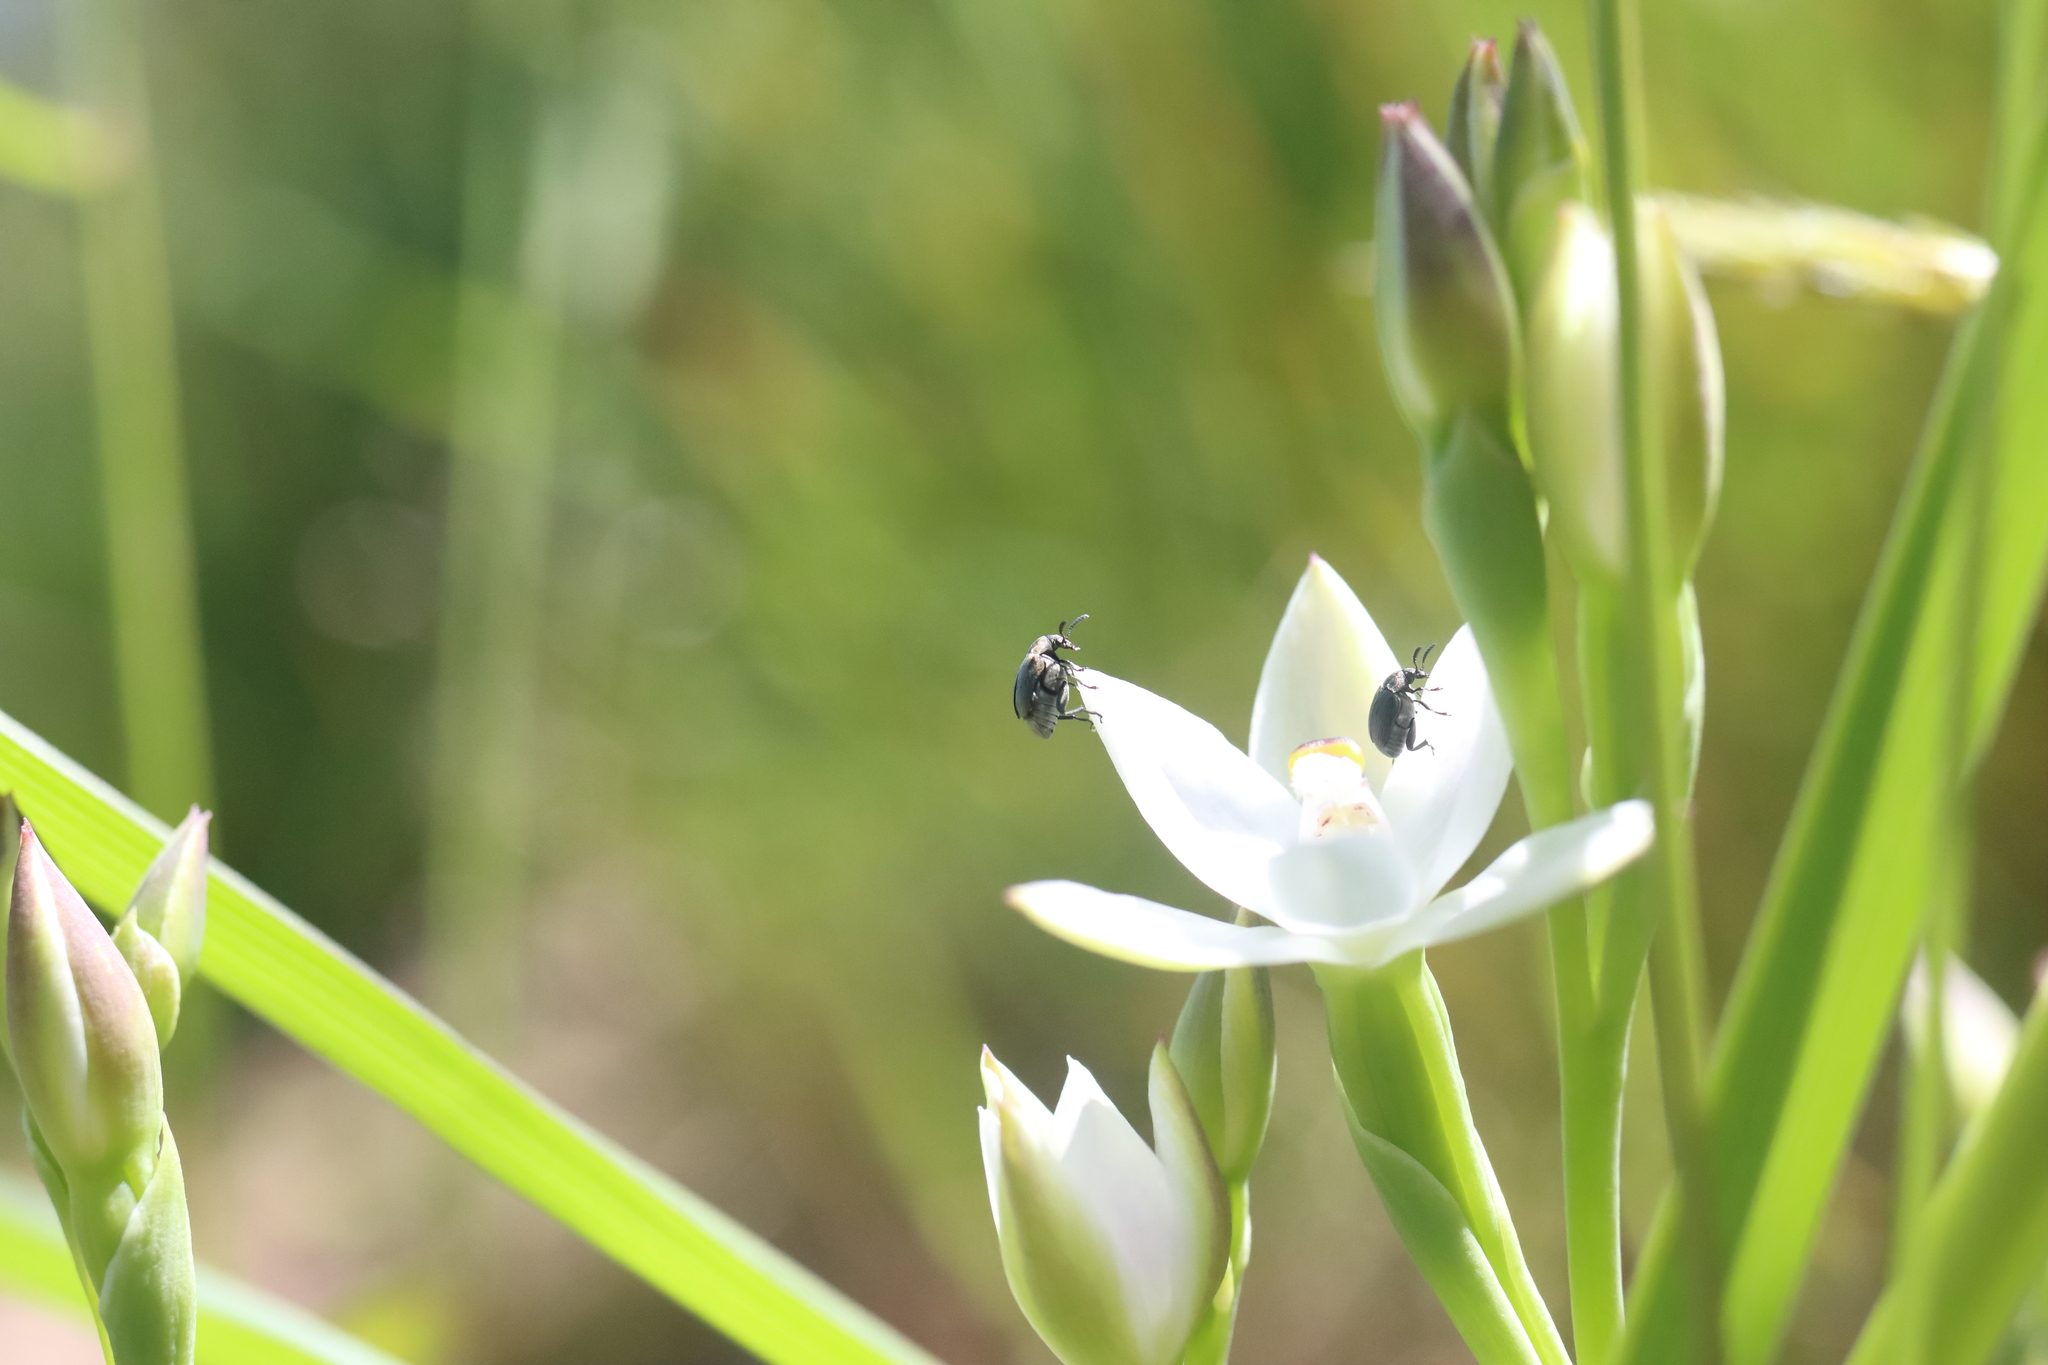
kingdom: Animalia
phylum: Arthropoda
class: Insecta
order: Coleoptera
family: Chrysomelidae
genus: Bruchidius
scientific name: Bruchidius villosus
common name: Scotch broom bruchid
